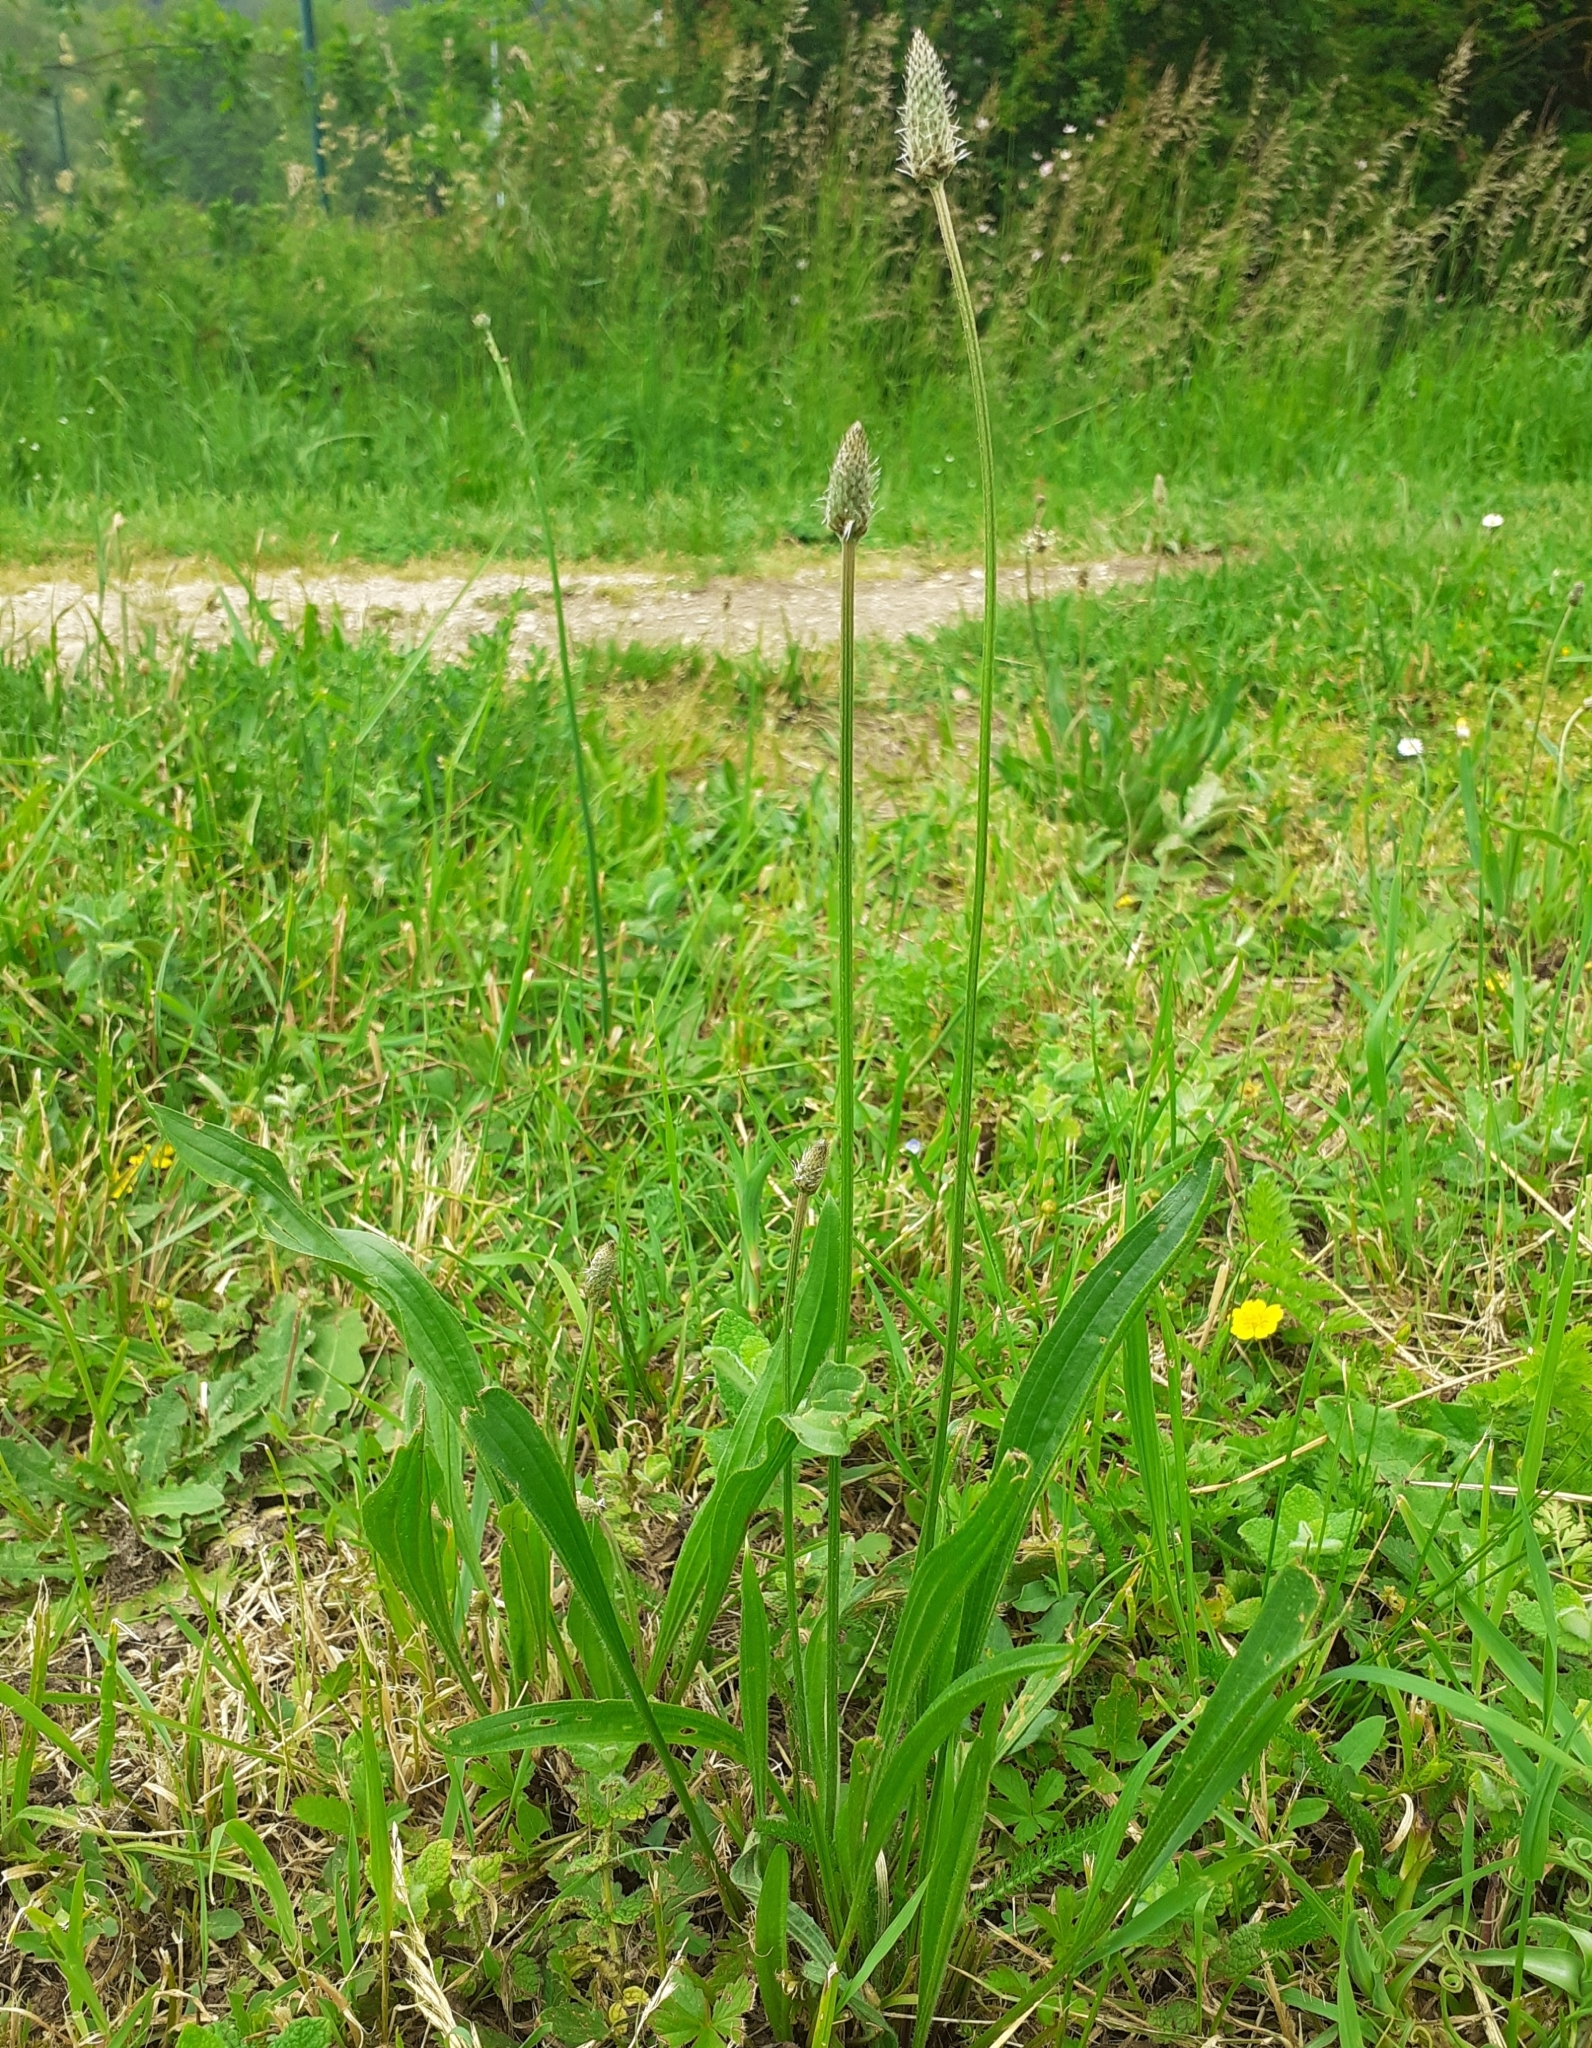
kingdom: Plantae
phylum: Tracheophyta
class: Magnoliopsida
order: Lamiales
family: Plantaginaceae
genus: Plantago
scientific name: Plantago lanceolata
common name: Ribwort plantain
